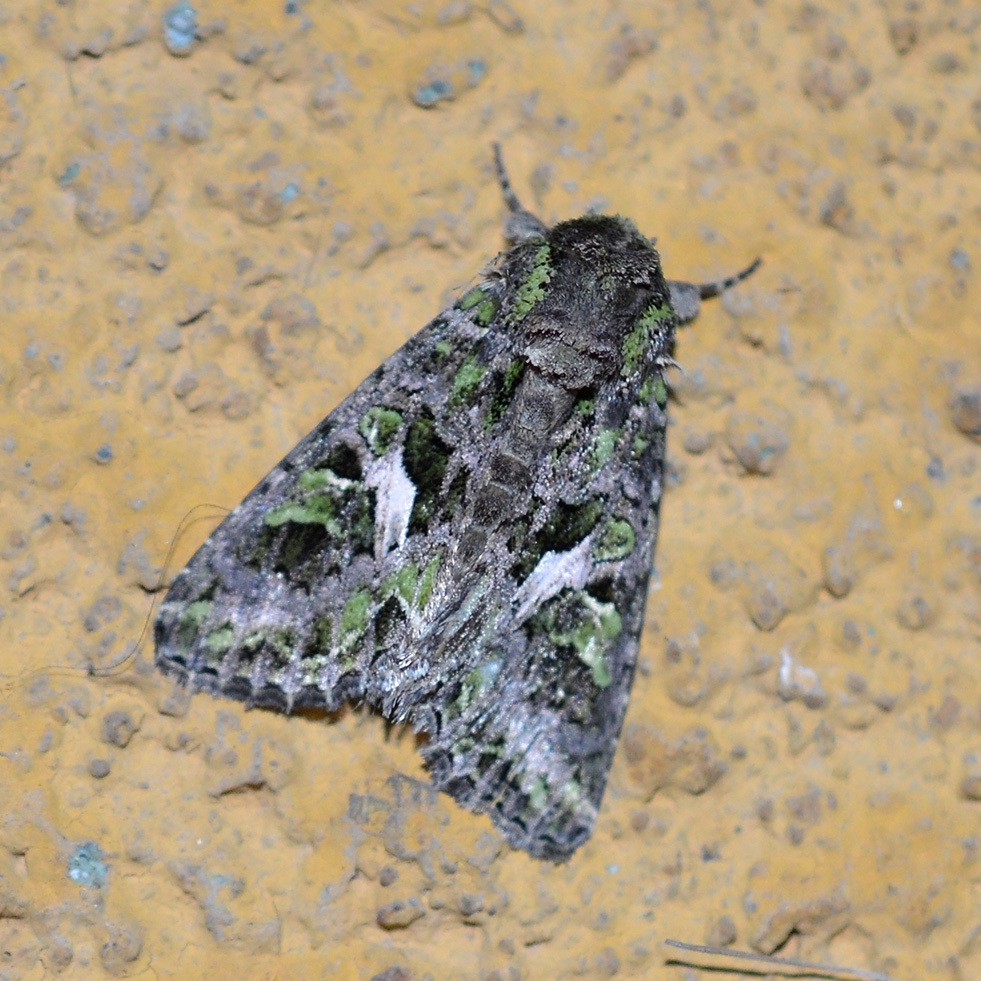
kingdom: Animalia
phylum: Arthropoda
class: Insecta
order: Lepidoptera
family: Noctuidae
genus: Trachea
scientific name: Trachea atriplicis
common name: Orache moth
